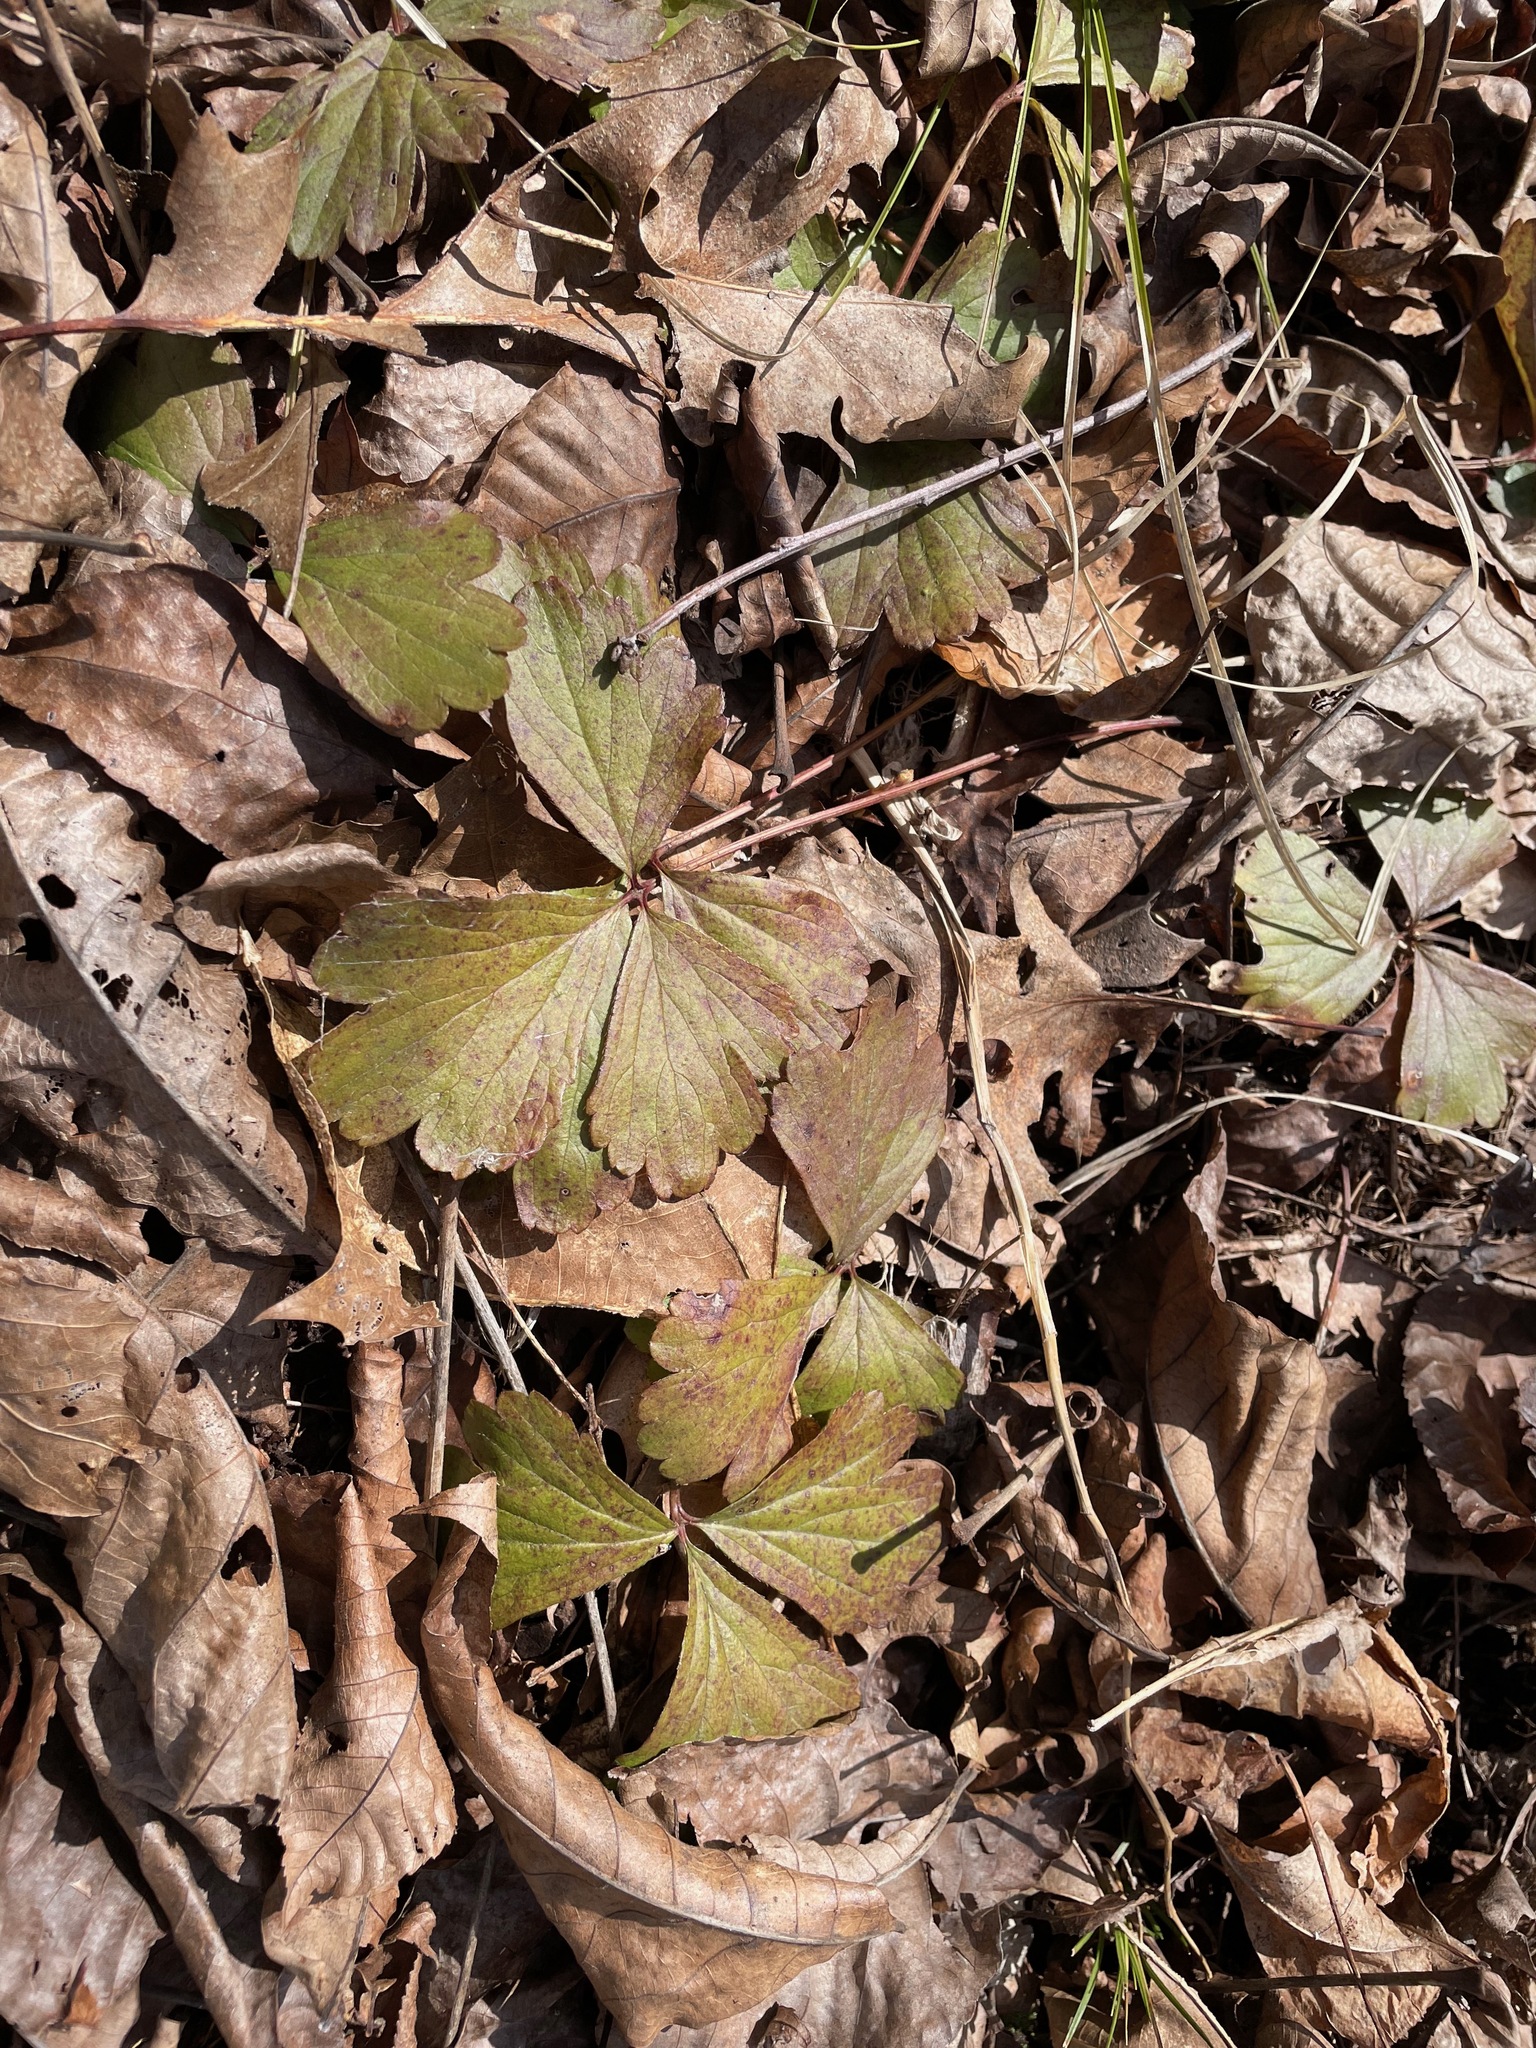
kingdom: Plantae
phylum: Tracheophyta
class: Magnoliopsida
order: Rosales
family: Rosaceae
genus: Geum
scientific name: Geum fragarioides
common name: Appalachian barren strawberry
